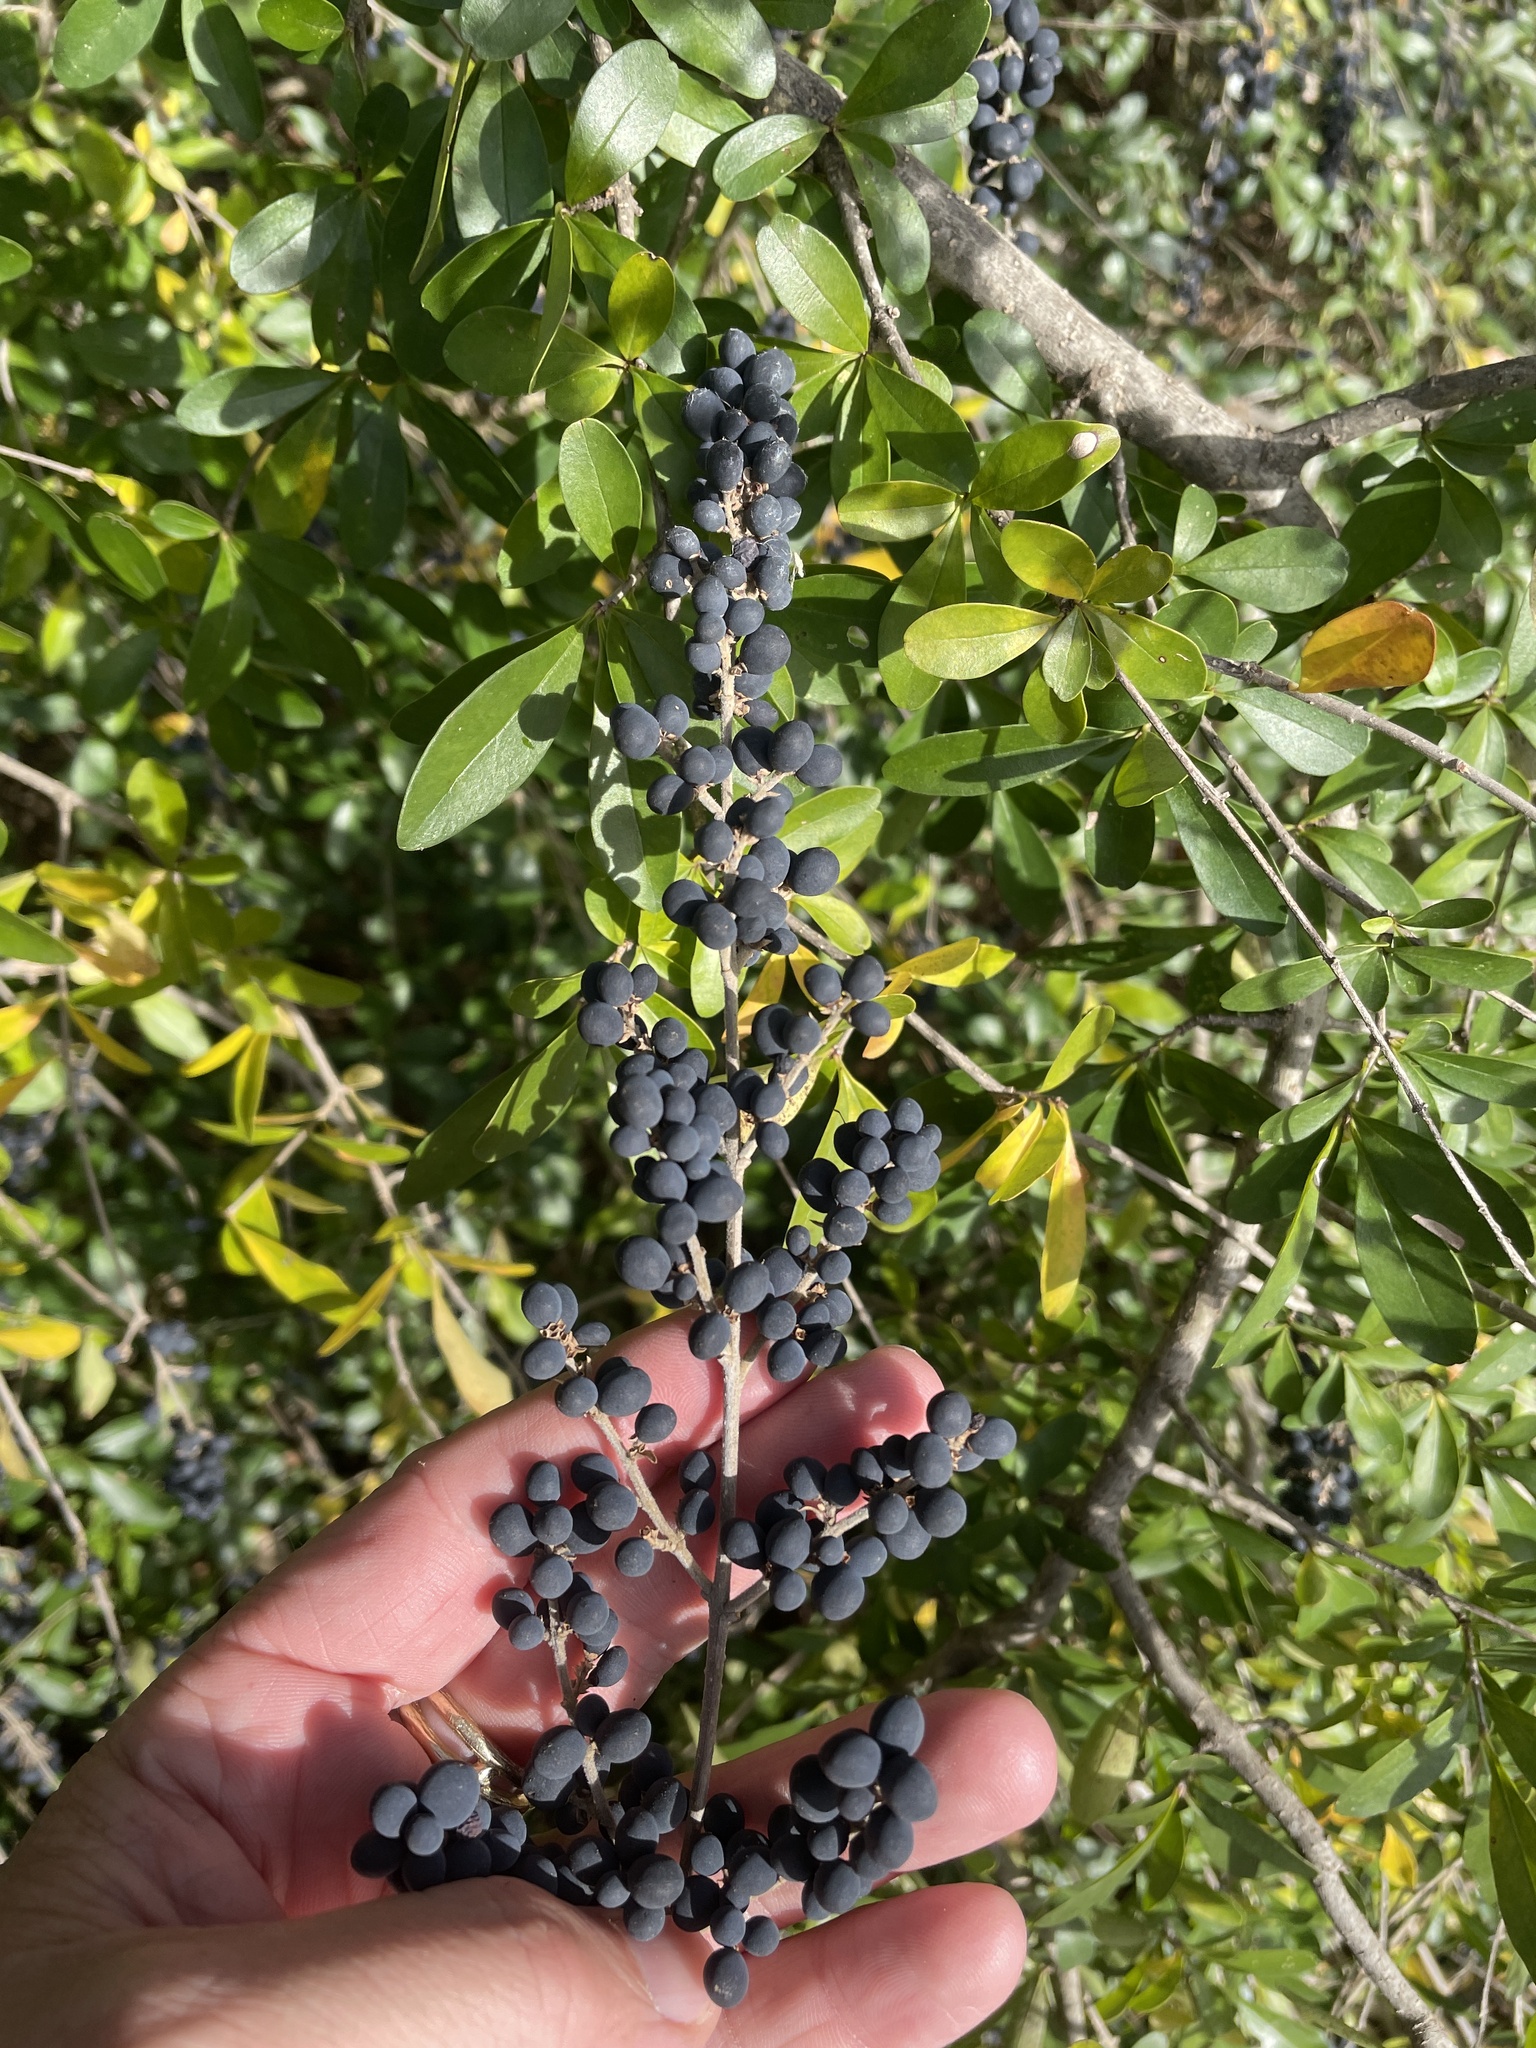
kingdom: Plantae
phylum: Tracheophyta
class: Magnoliopsida
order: Lamiales
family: Oleaceae
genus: Ligustrum
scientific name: Ligustrum quihoui
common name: Waxyleaf privet
